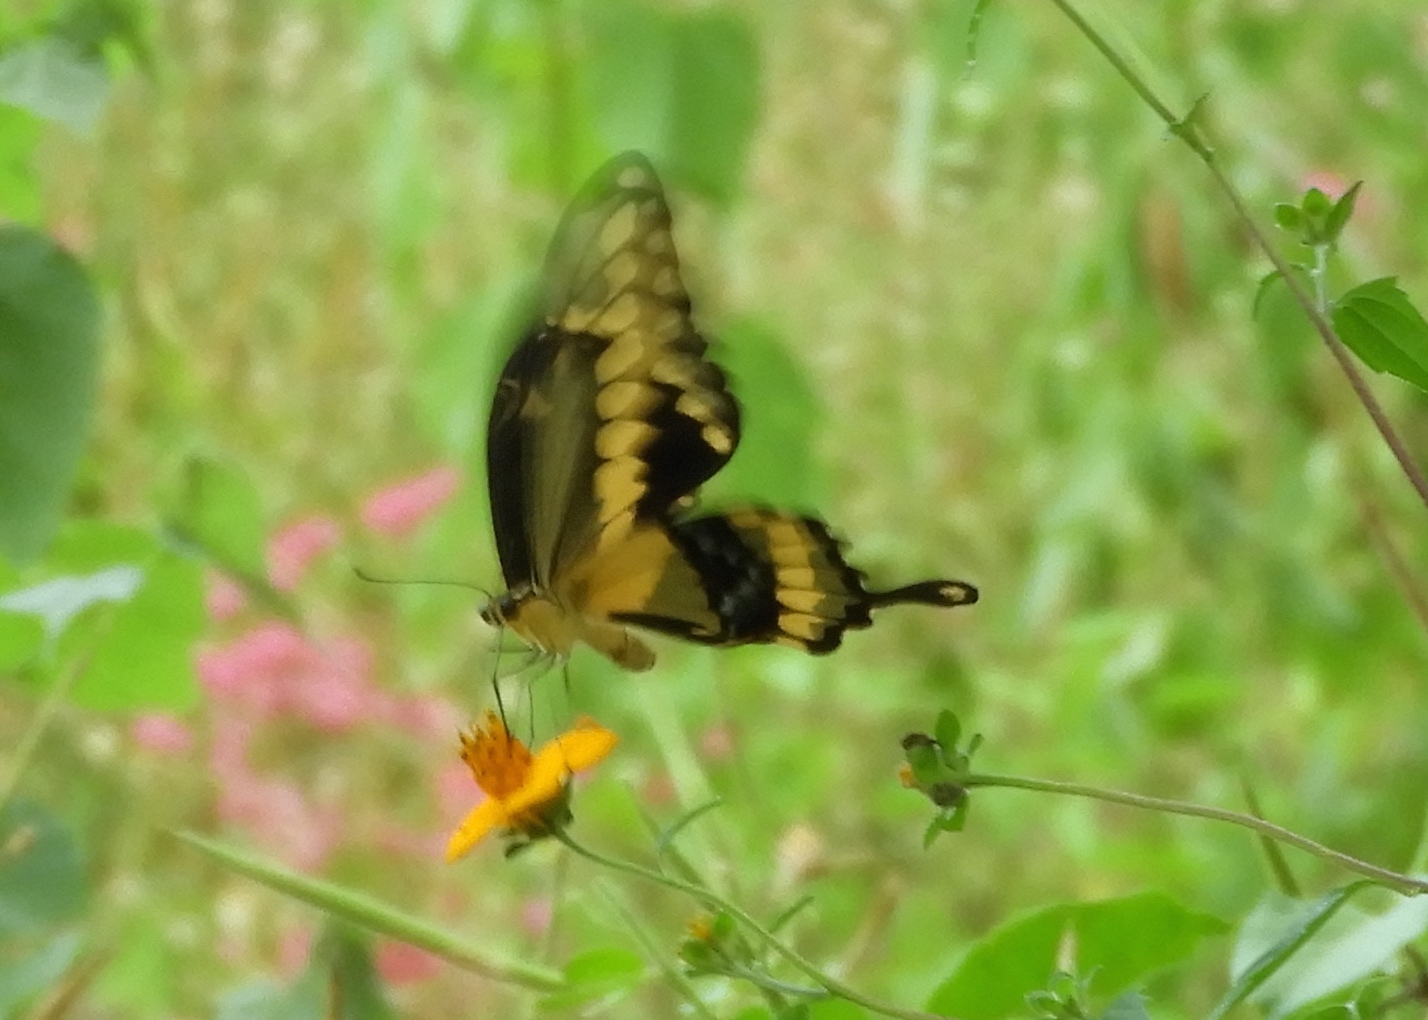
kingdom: Animalia
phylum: Arthropoda
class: Insecta
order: Lepidoptera
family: Papilionidae
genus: Papilio
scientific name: Papilio rumiko
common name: Western giant swallowtail
